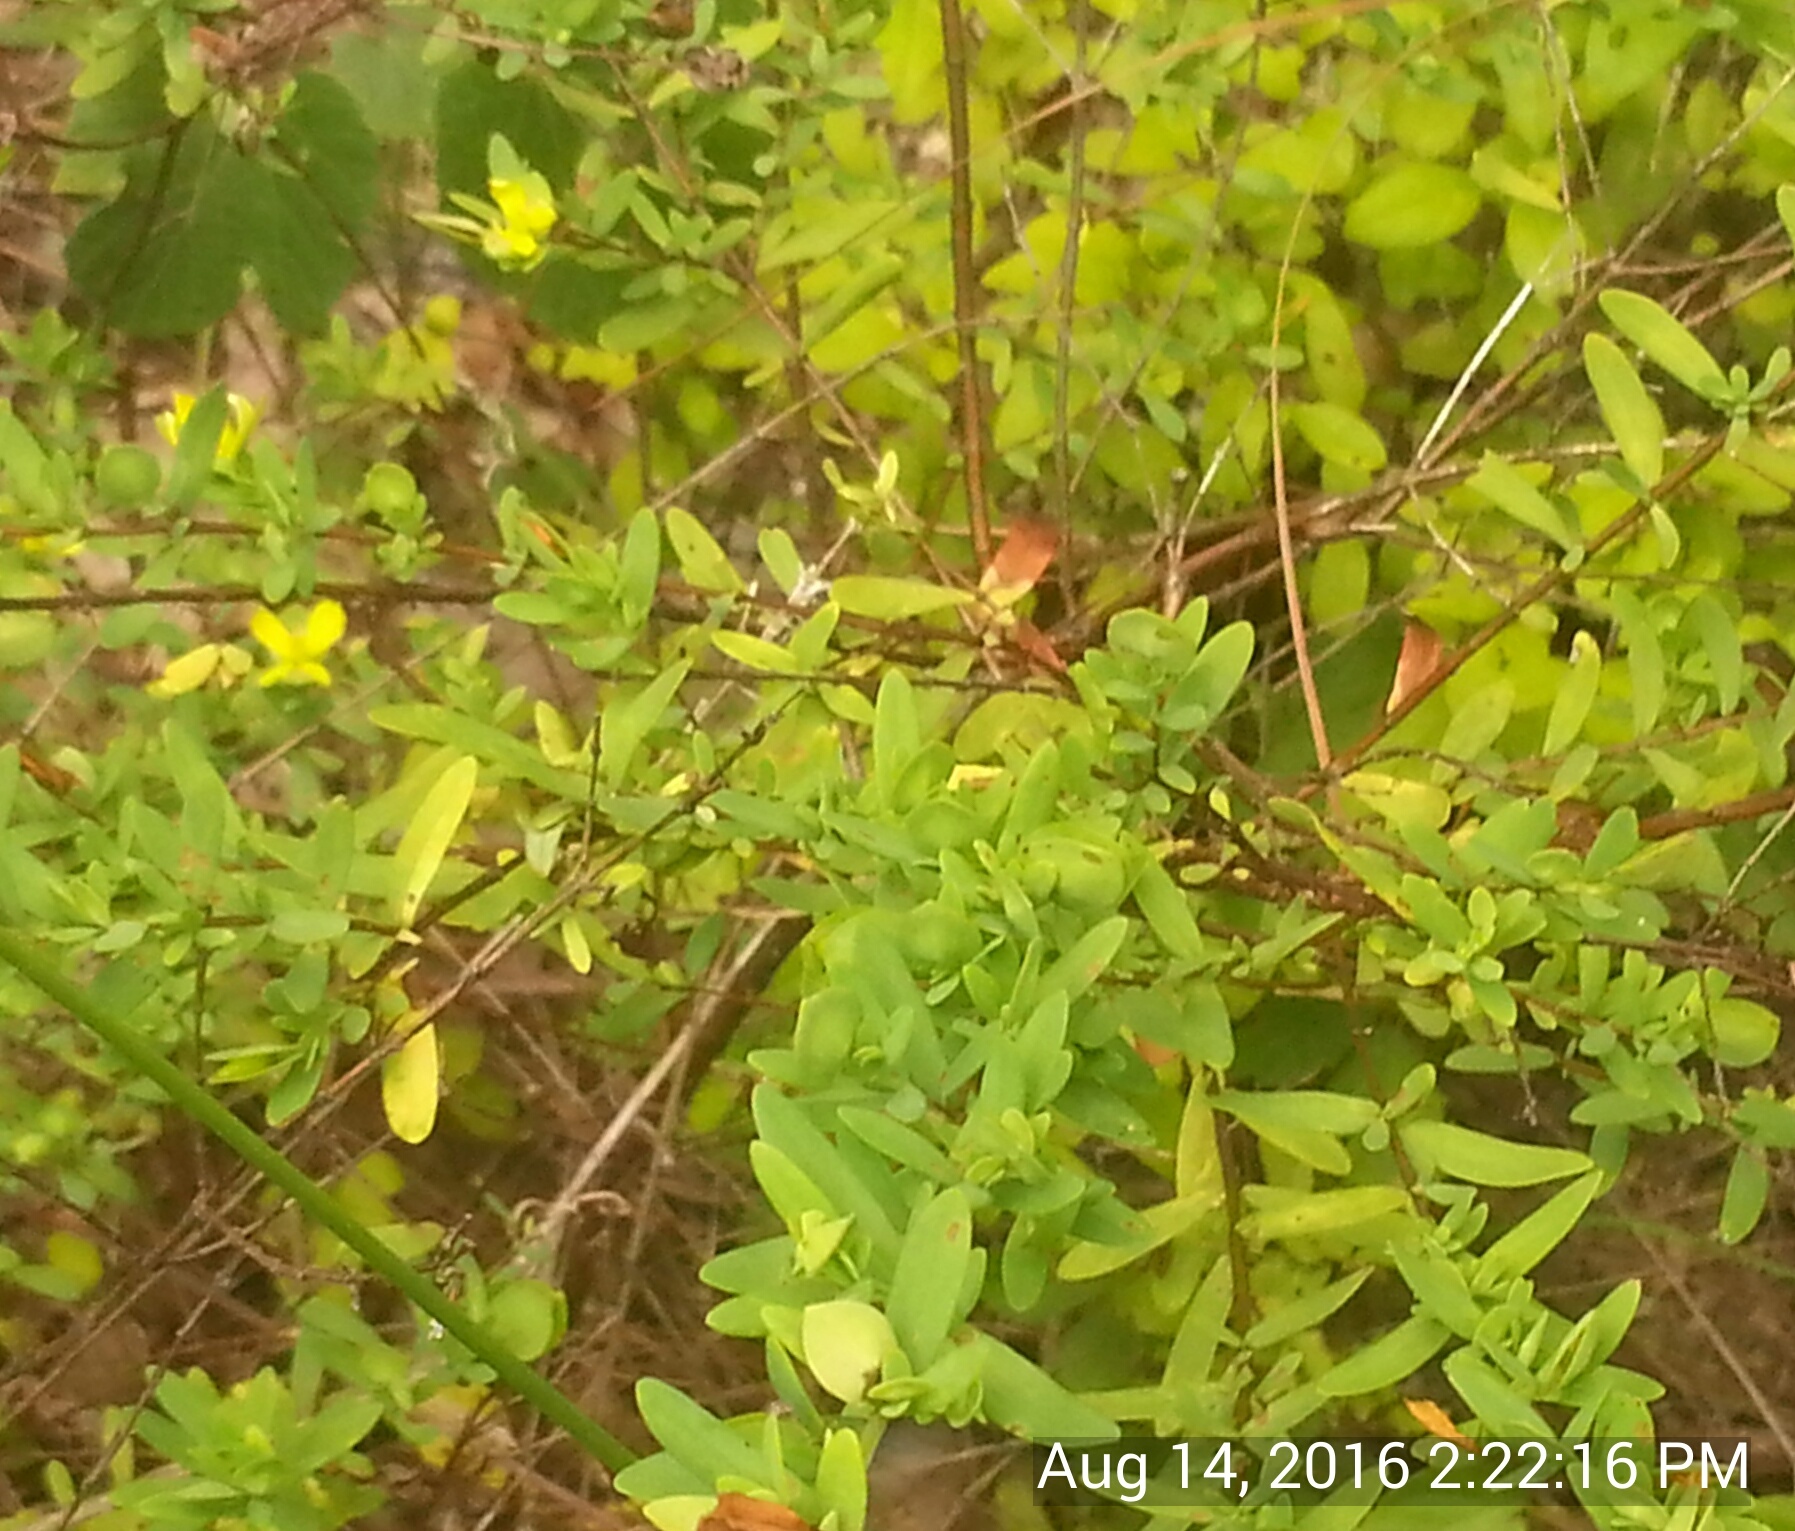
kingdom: Plantae
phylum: Tracheophyta
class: Magnoliopsida
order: Malpighiales
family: Hypericaceae
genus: Hypericum
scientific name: Hypericum hypericoides
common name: St. andrew's cross
